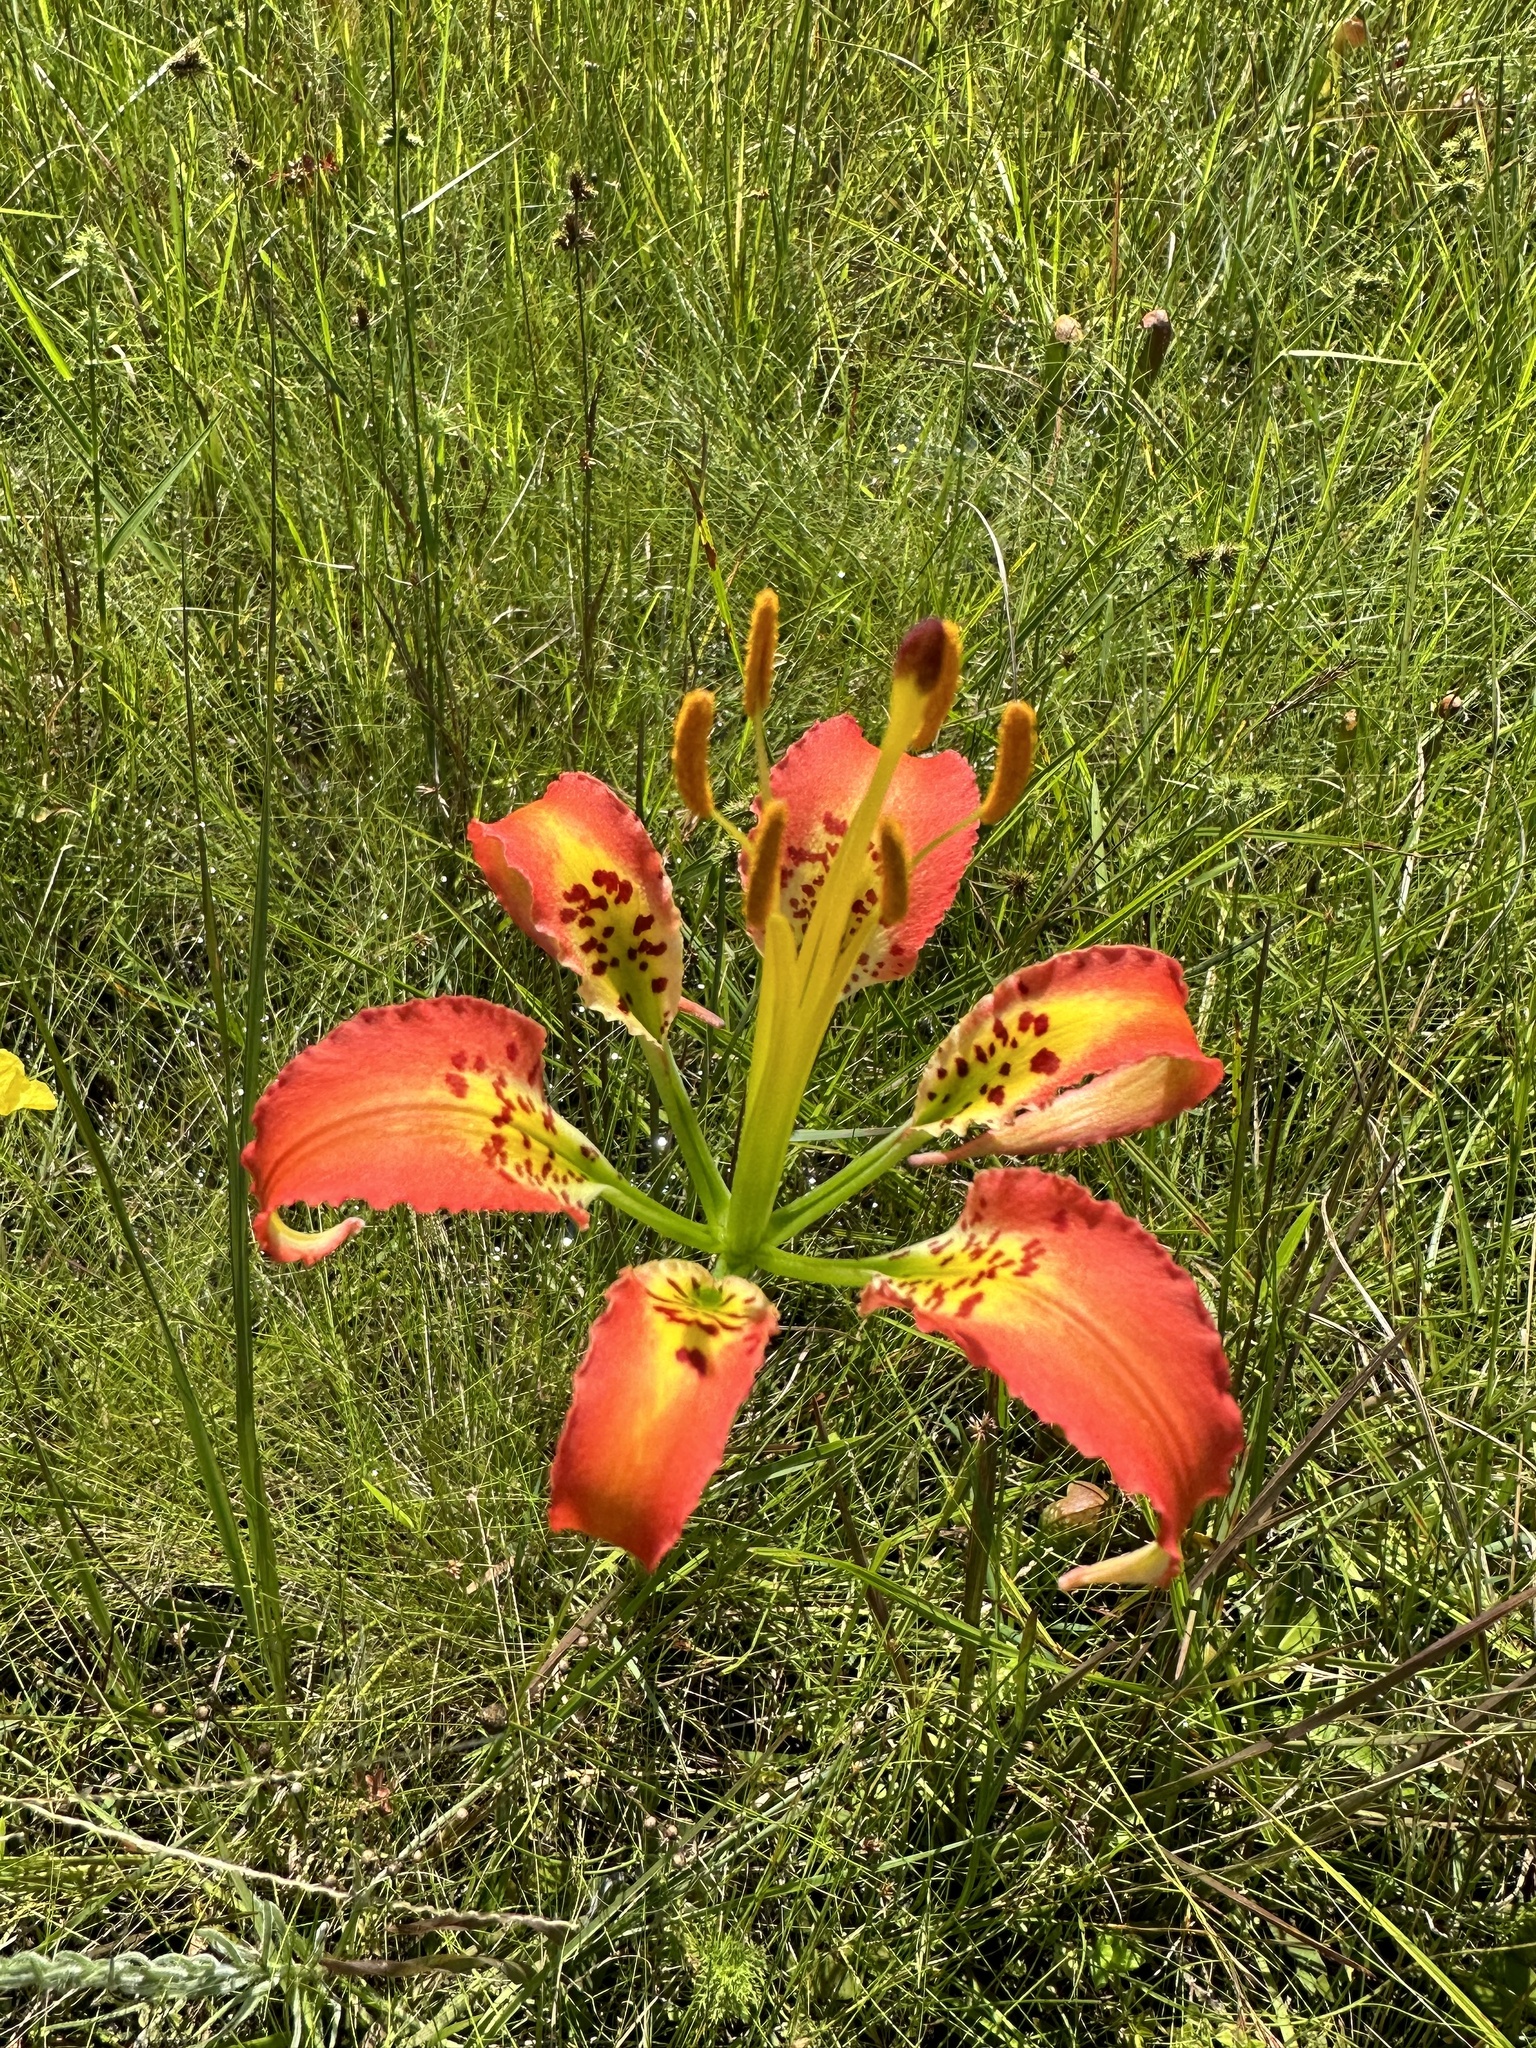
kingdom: Plantae
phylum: Tracheophyta
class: Liliopsida
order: Liliales
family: Liliaceae
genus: Lilium
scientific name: Lilium catesbaei
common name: Catesby's lily
